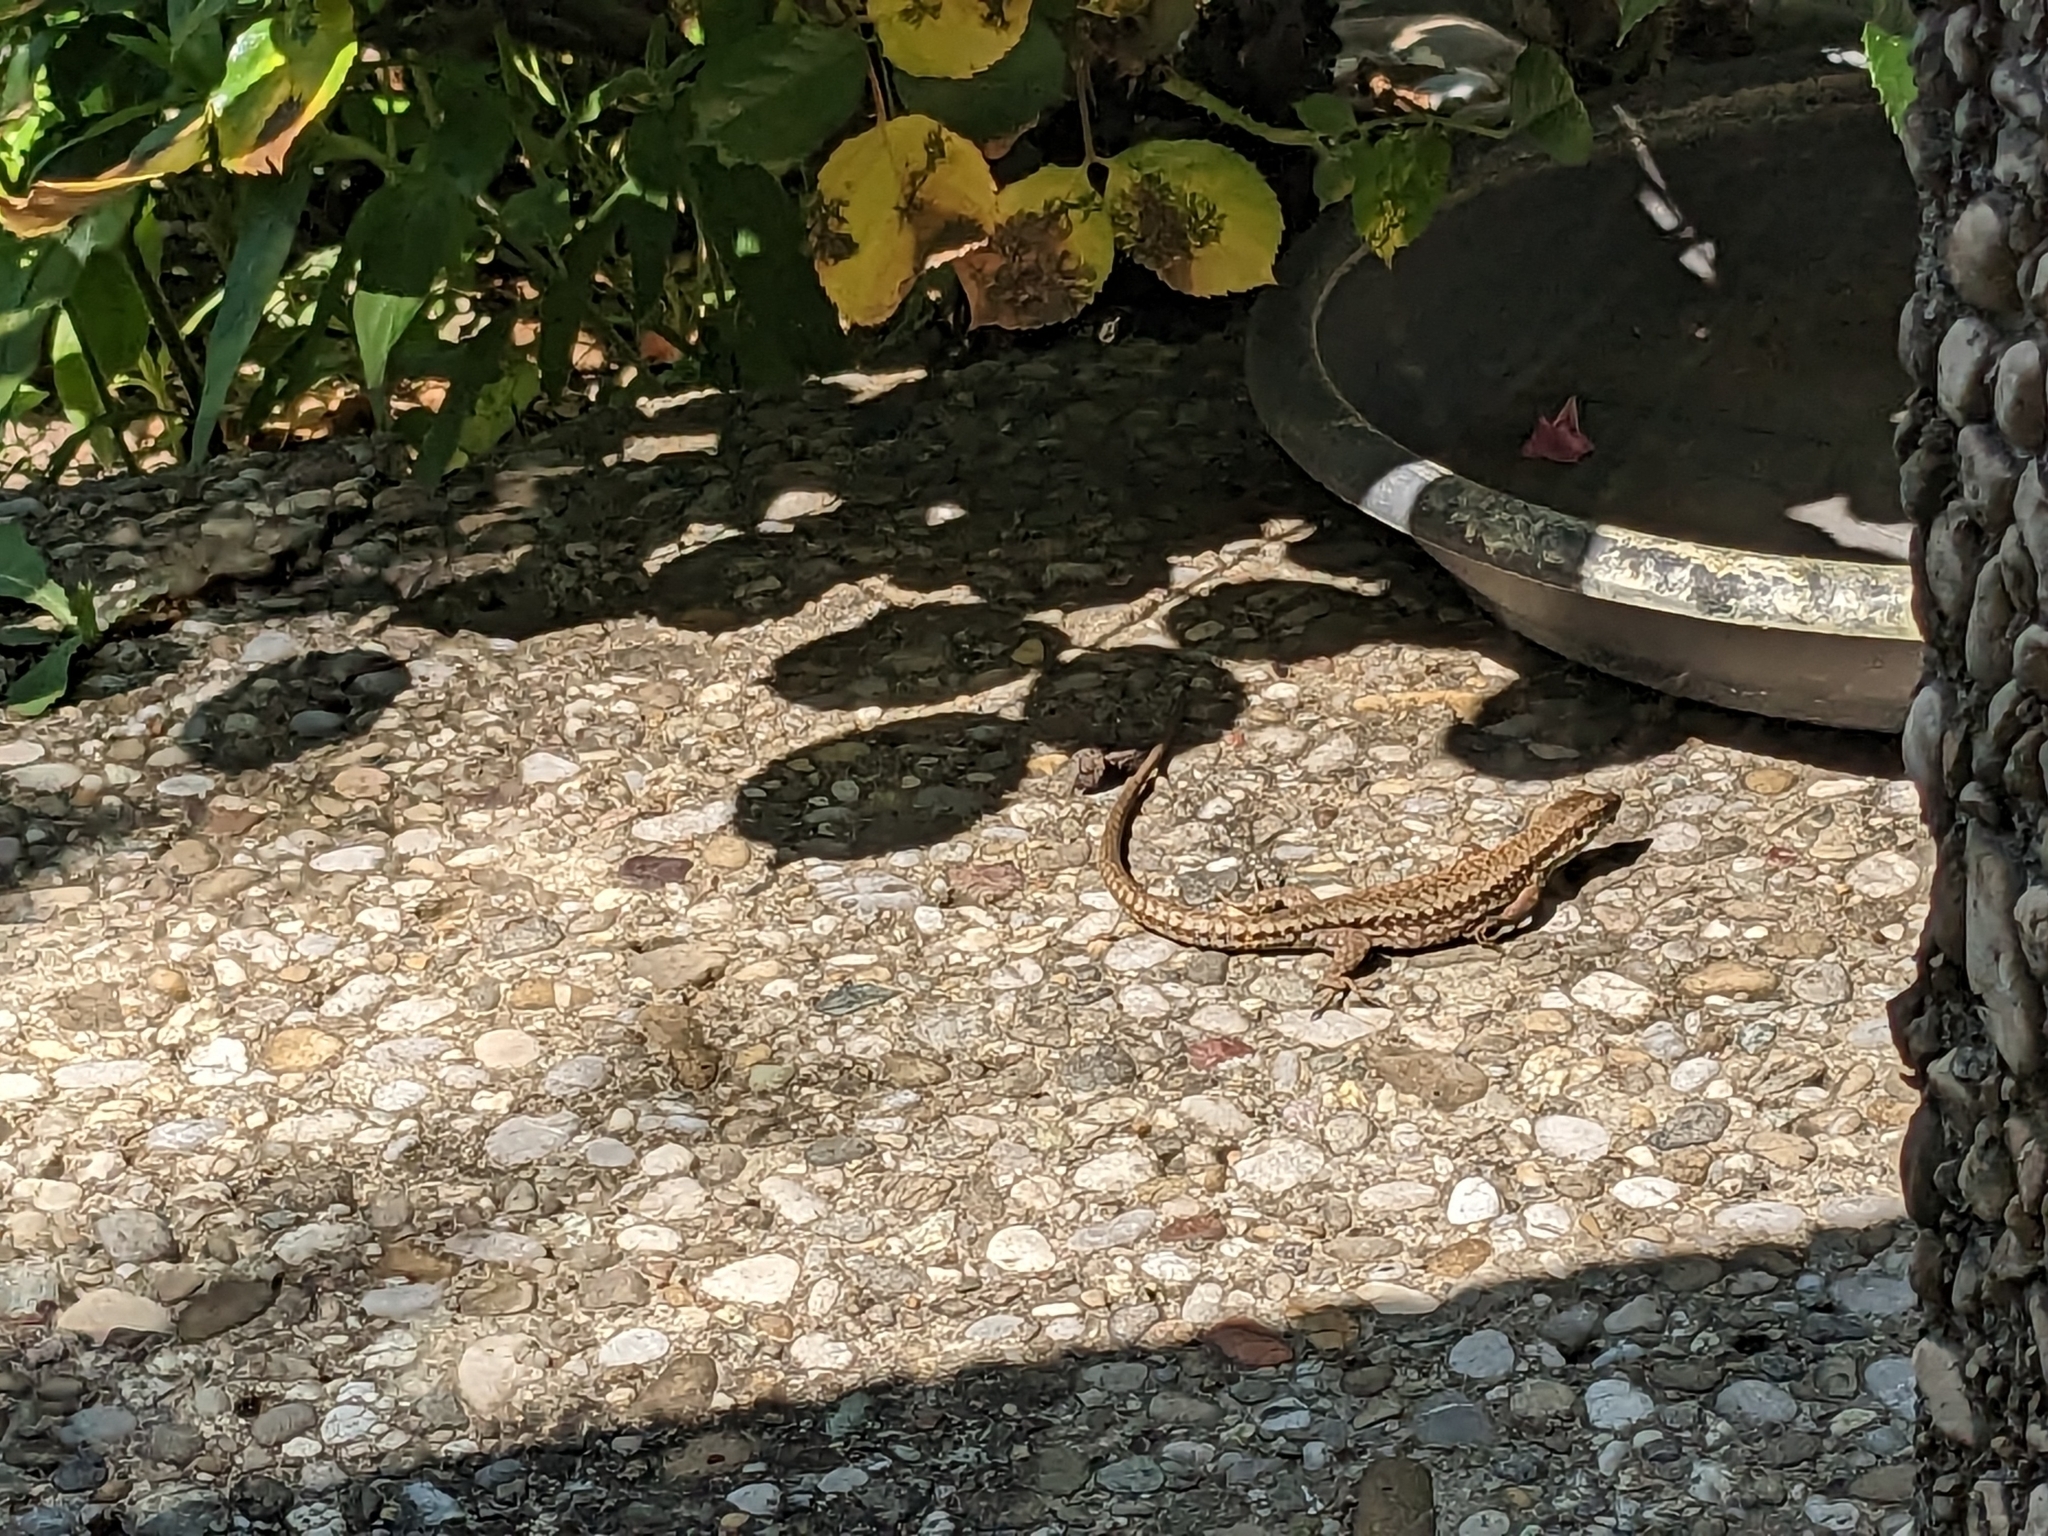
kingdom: Animalia
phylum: Chordata
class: Squamata
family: Lacertidae
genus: Podarcis
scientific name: Podarcis muralis
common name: Common wall lizard
